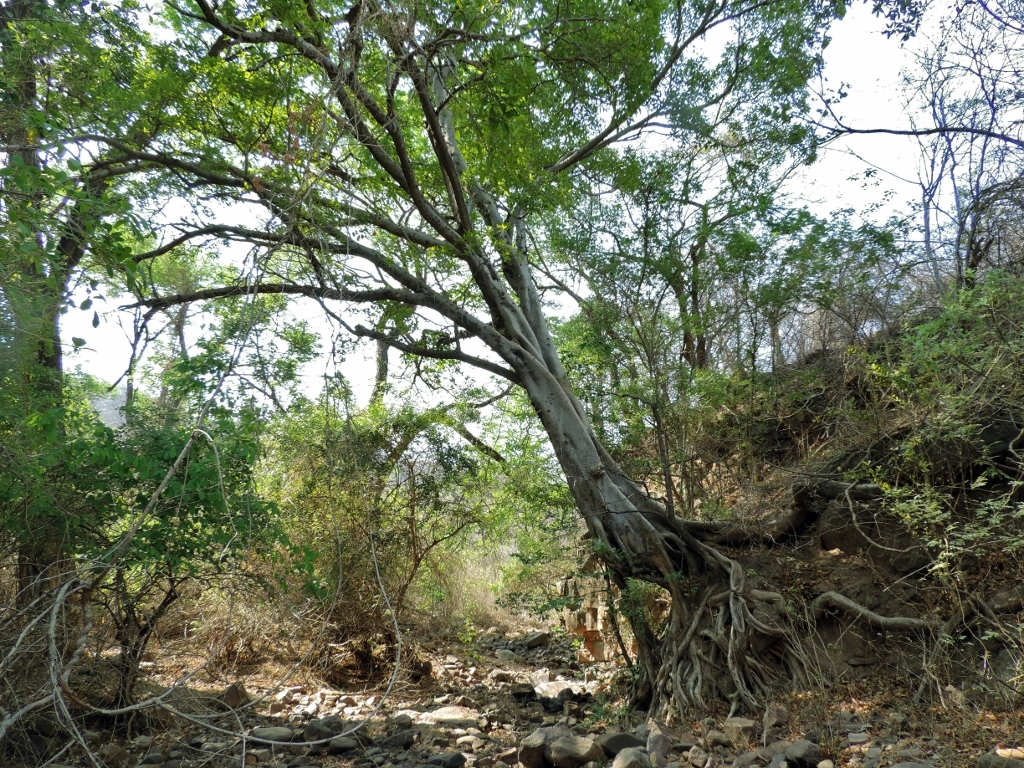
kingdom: Plantae
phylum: Tracheophyta
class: Magnoliopsida
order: Rosales
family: Moraceae
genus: Ficus
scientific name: Ficus sansibarica
